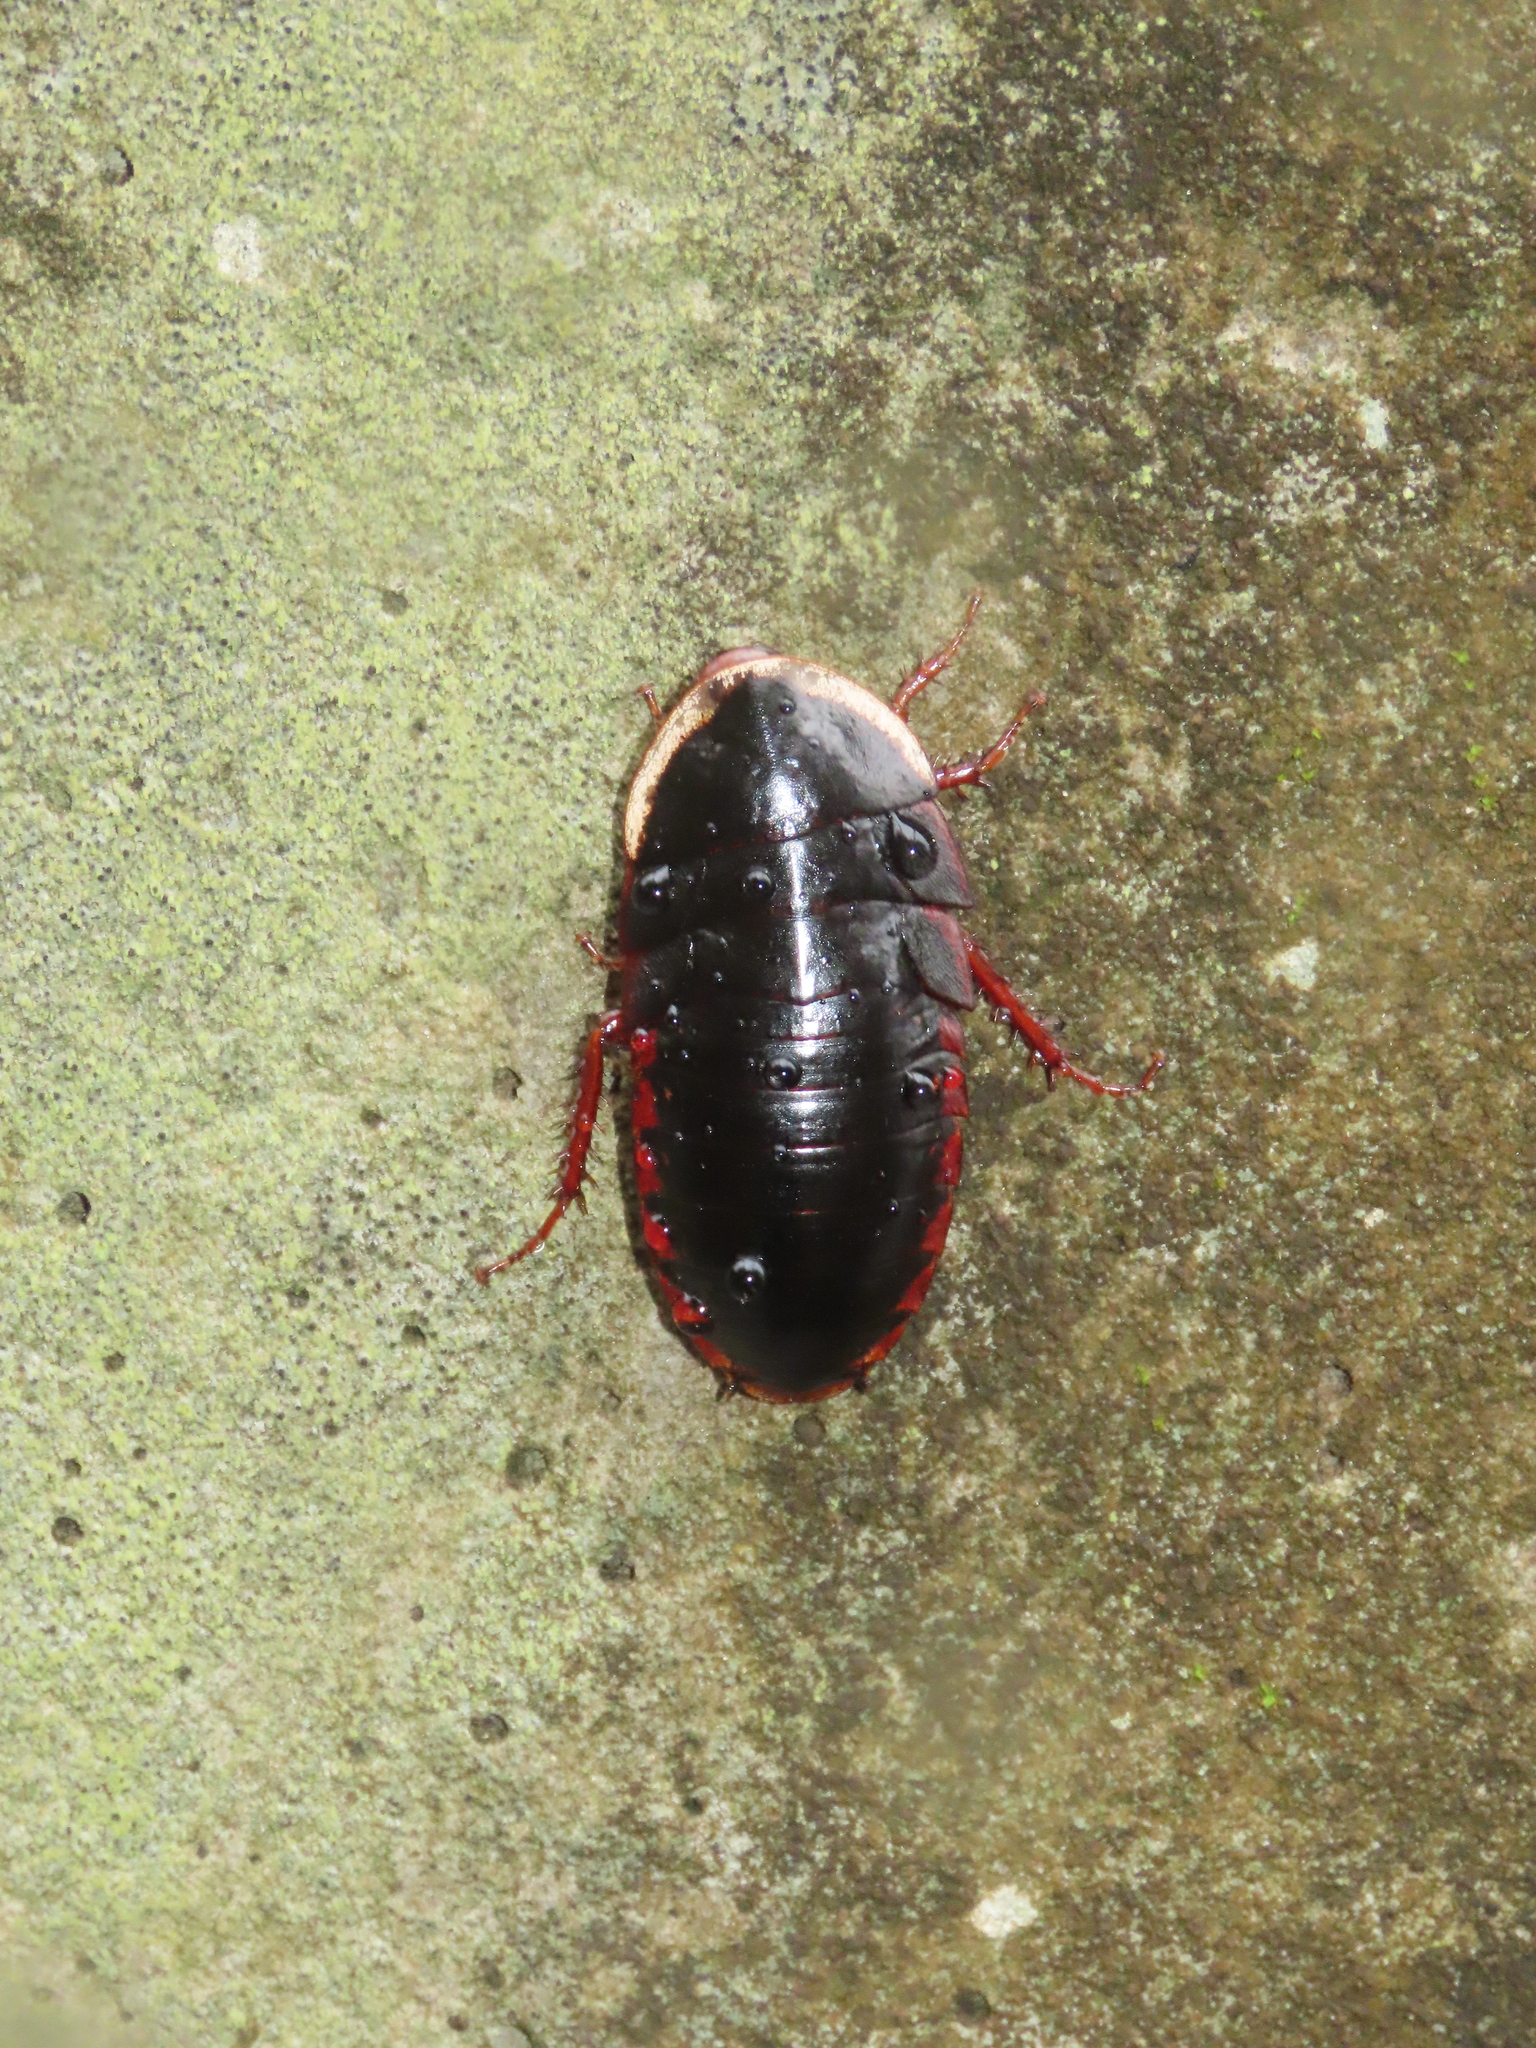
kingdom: Animalia
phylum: Arthropoda
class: Insecta
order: Blattodea
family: Blaberidae
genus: Opisthoplatia
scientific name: Opisthoplatia orientalis
